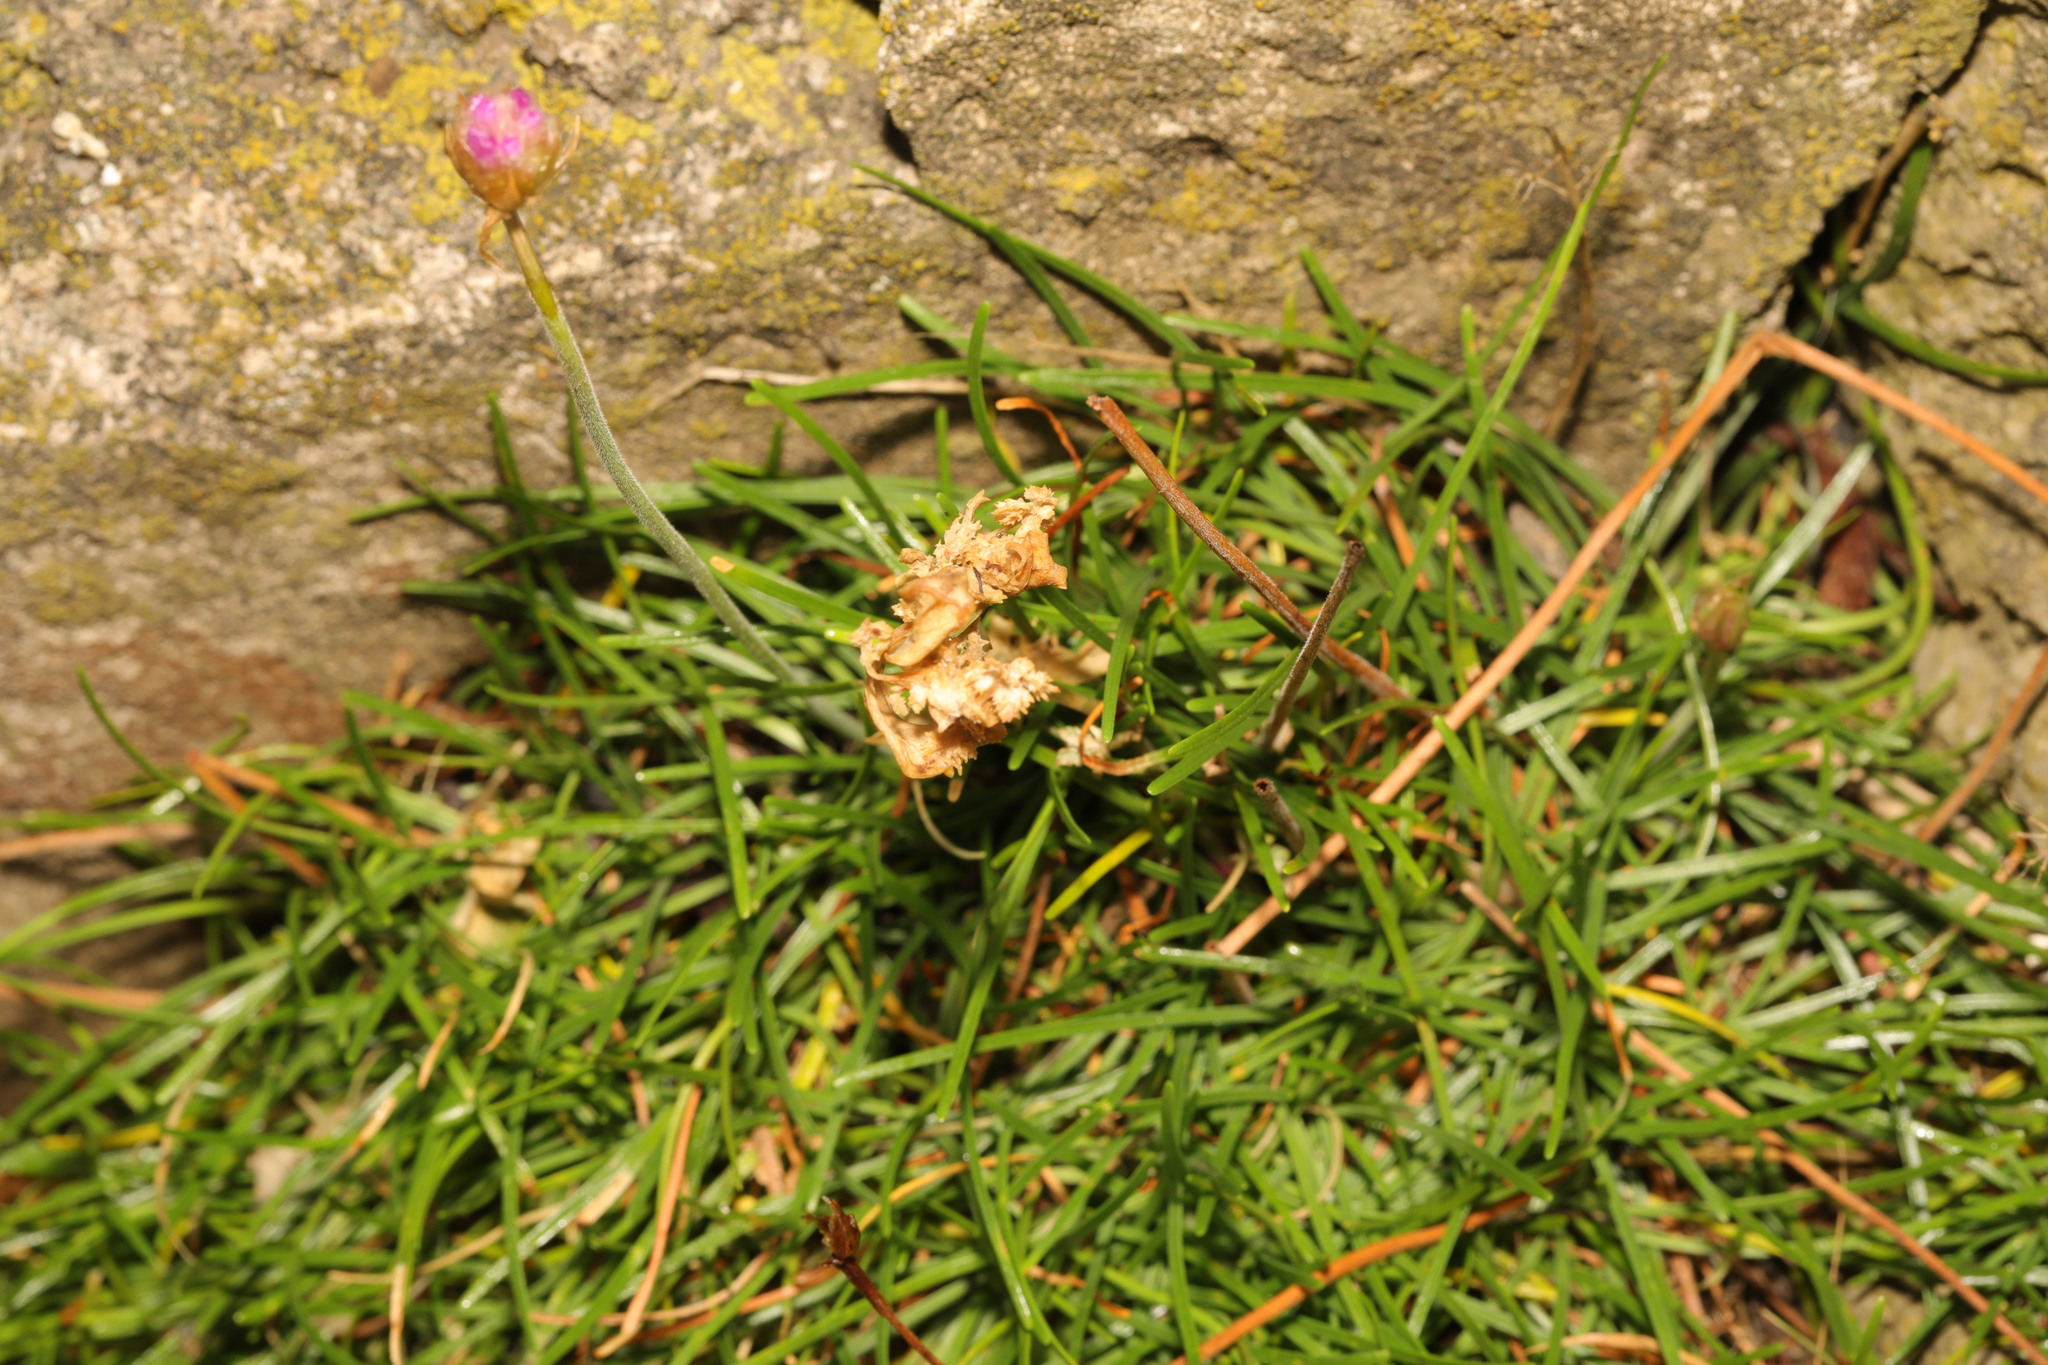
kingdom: Plantae
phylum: Tracheophyta
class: Magnoliopsida
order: Caryophyllales
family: Plumbaginaceae
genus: Armeria
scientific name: Armeria maritima
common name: Thrift
